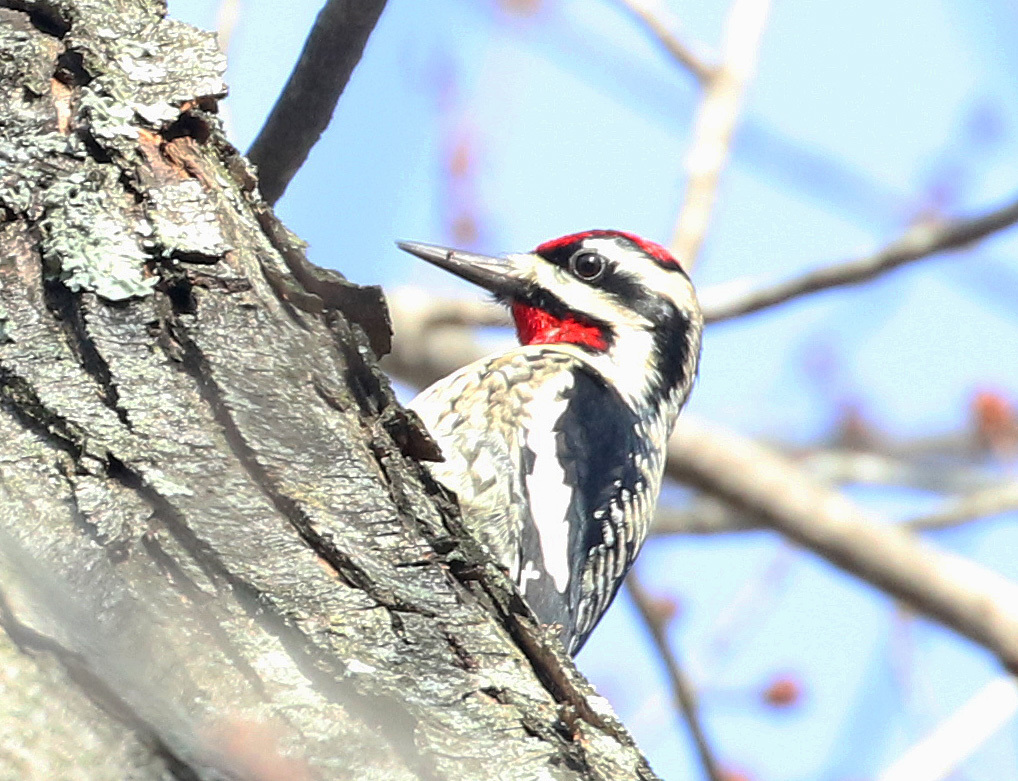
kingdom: Animalia
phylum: Chordata
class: Aves
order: Piciformes
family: Picidae
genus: Sphyrapicus
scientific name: Sphyrapicus varius
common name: Yellow-bellied sapsucker
